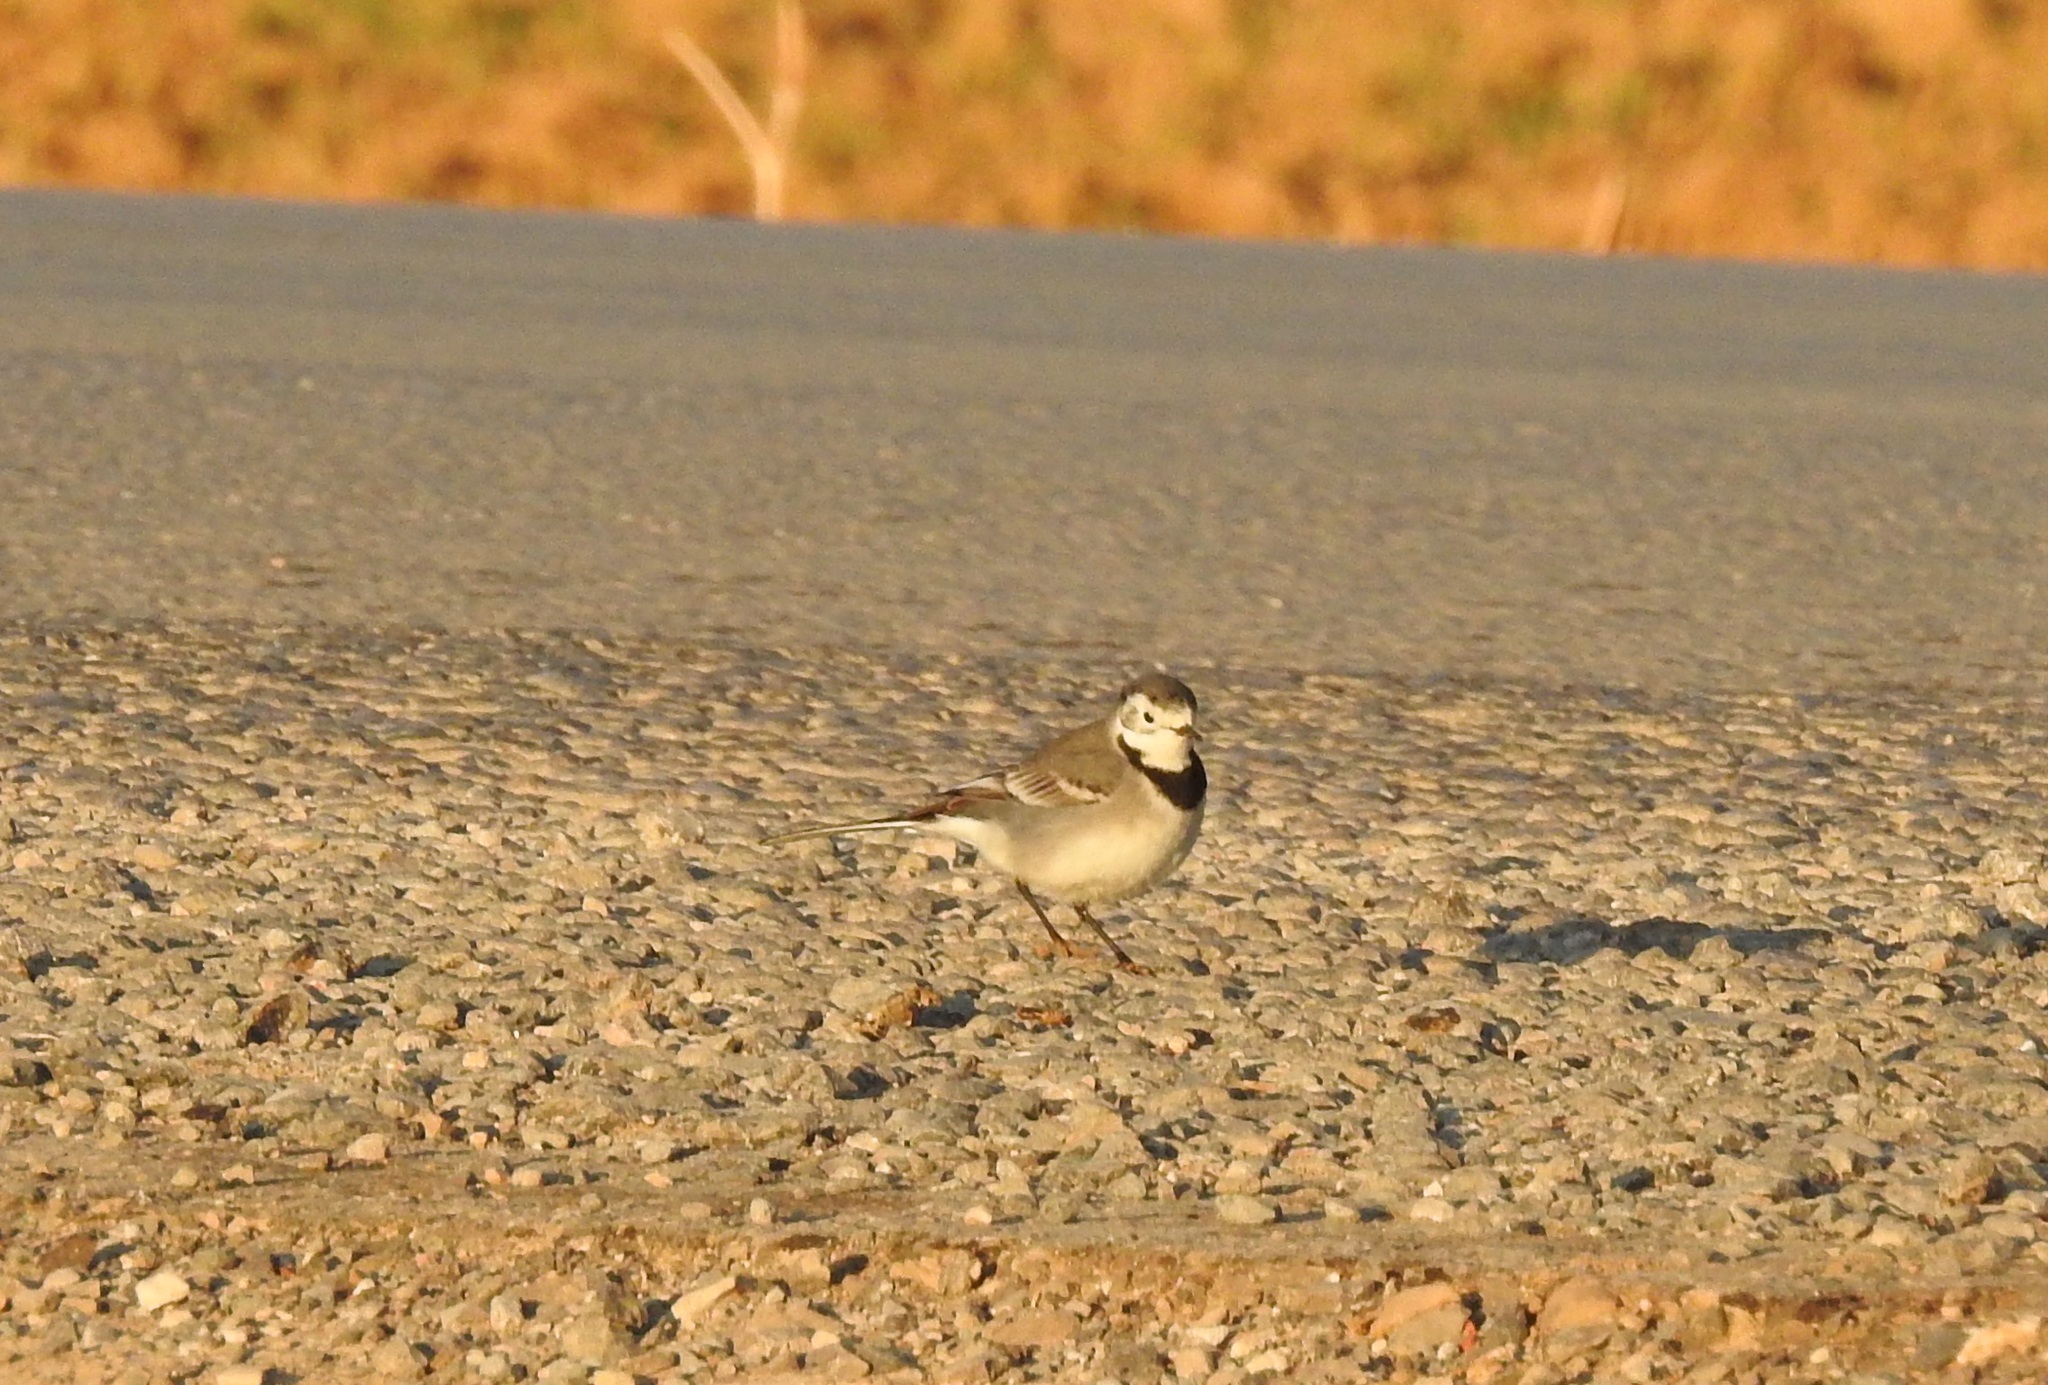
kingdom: Animalia
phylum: Chordata
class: Aves
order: Passeriformes
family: Motacillidae
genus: Motacilla
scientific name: Motacilla alba
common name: White wagtail
